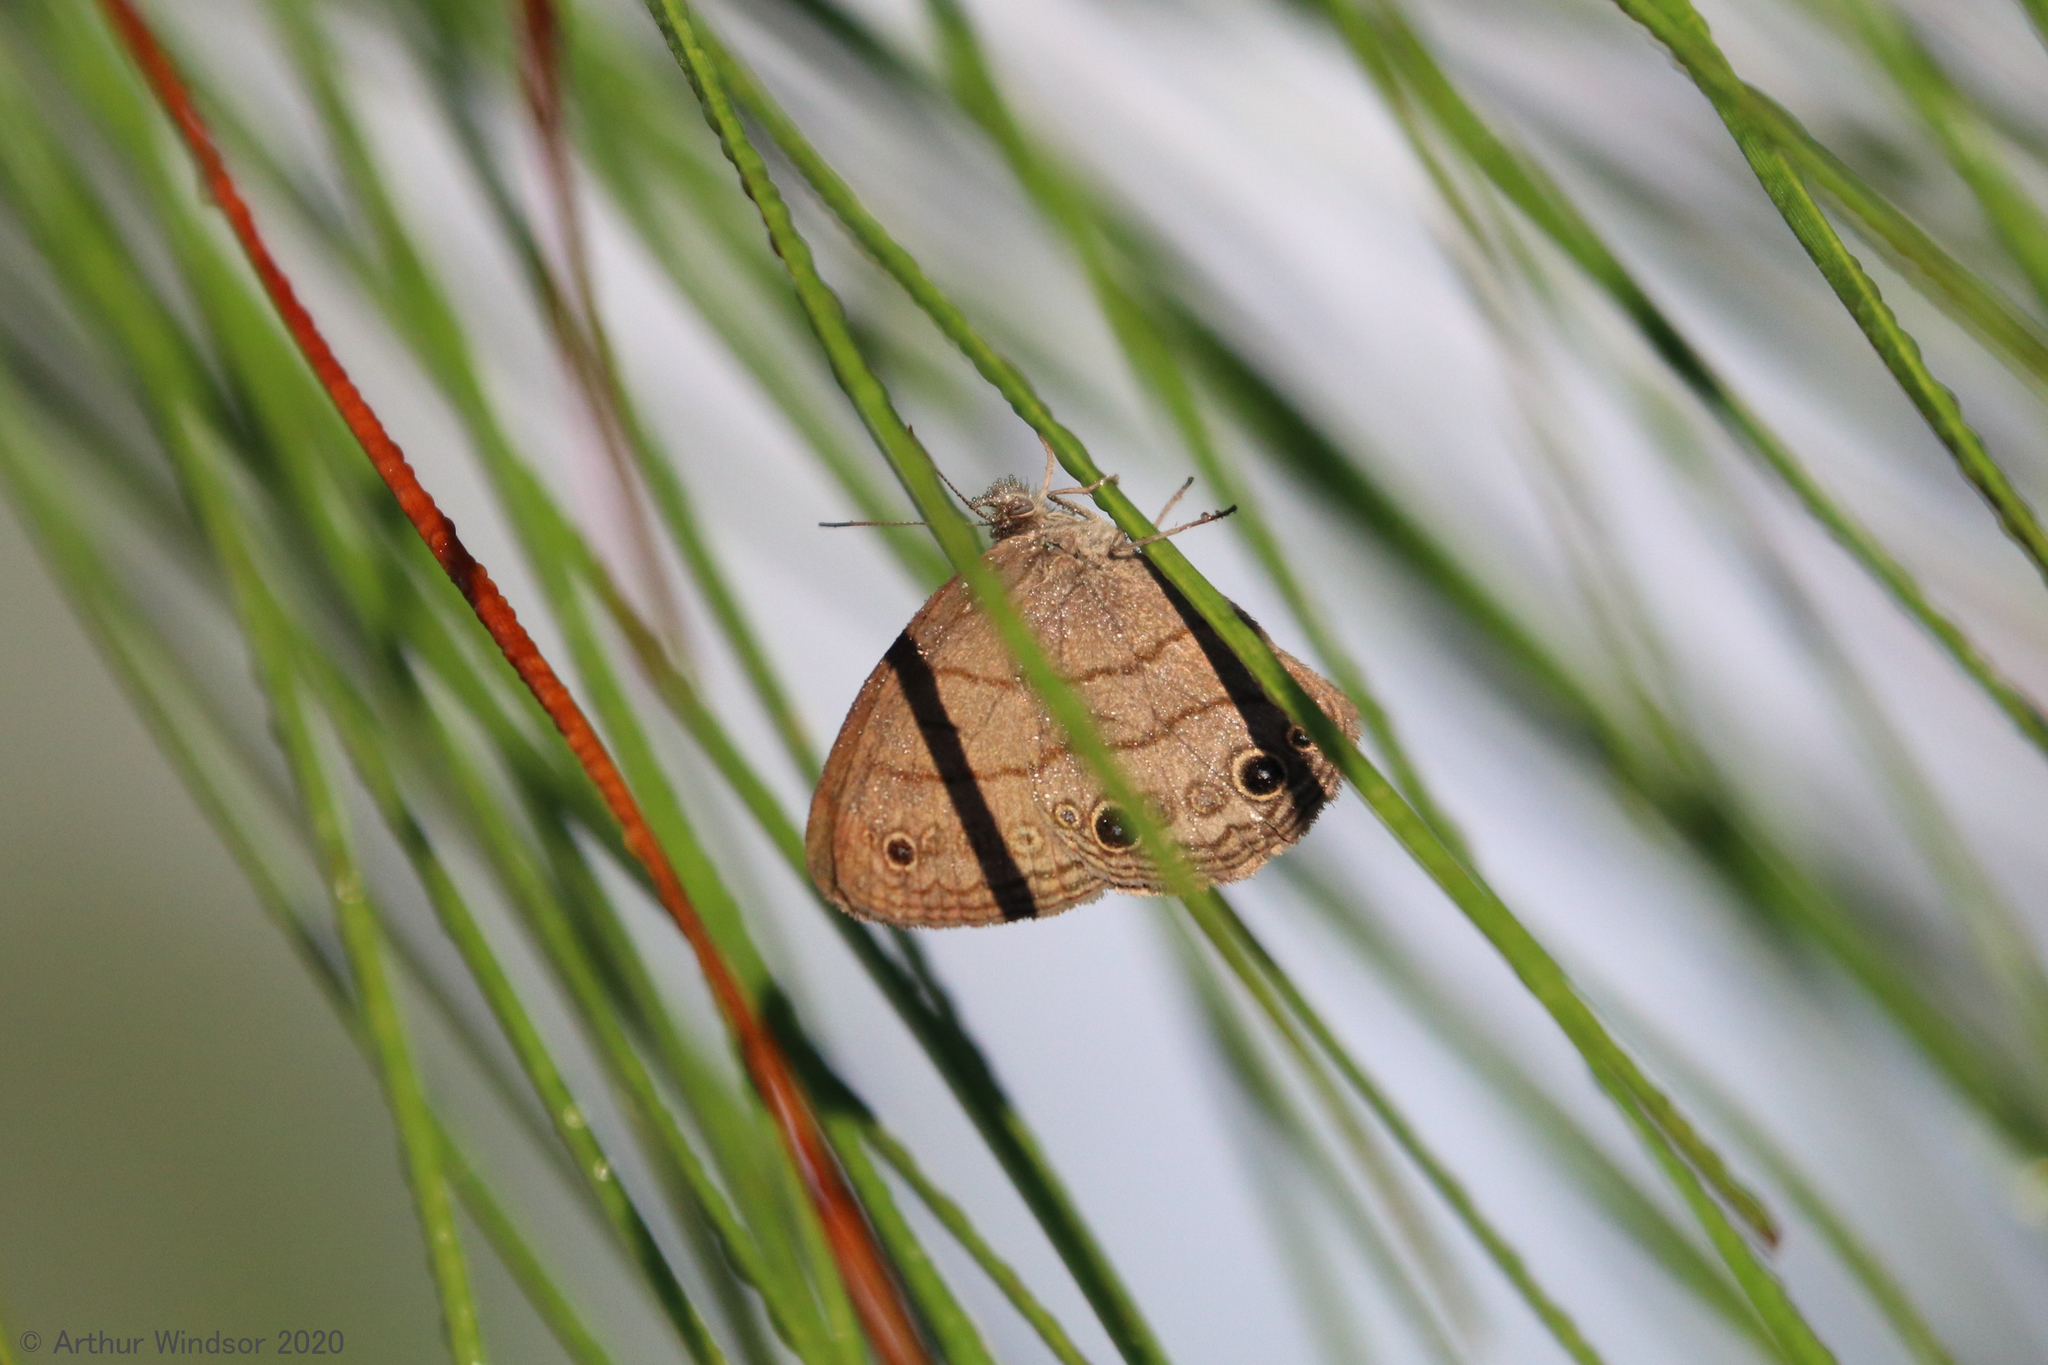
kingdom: Animalia
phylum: Arthropoda
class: Insecta
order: Lepidoptera
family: Nymphalidae
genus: Hermeuptychia
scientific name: Hermeuptychia hermes
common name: Hermes satyr
